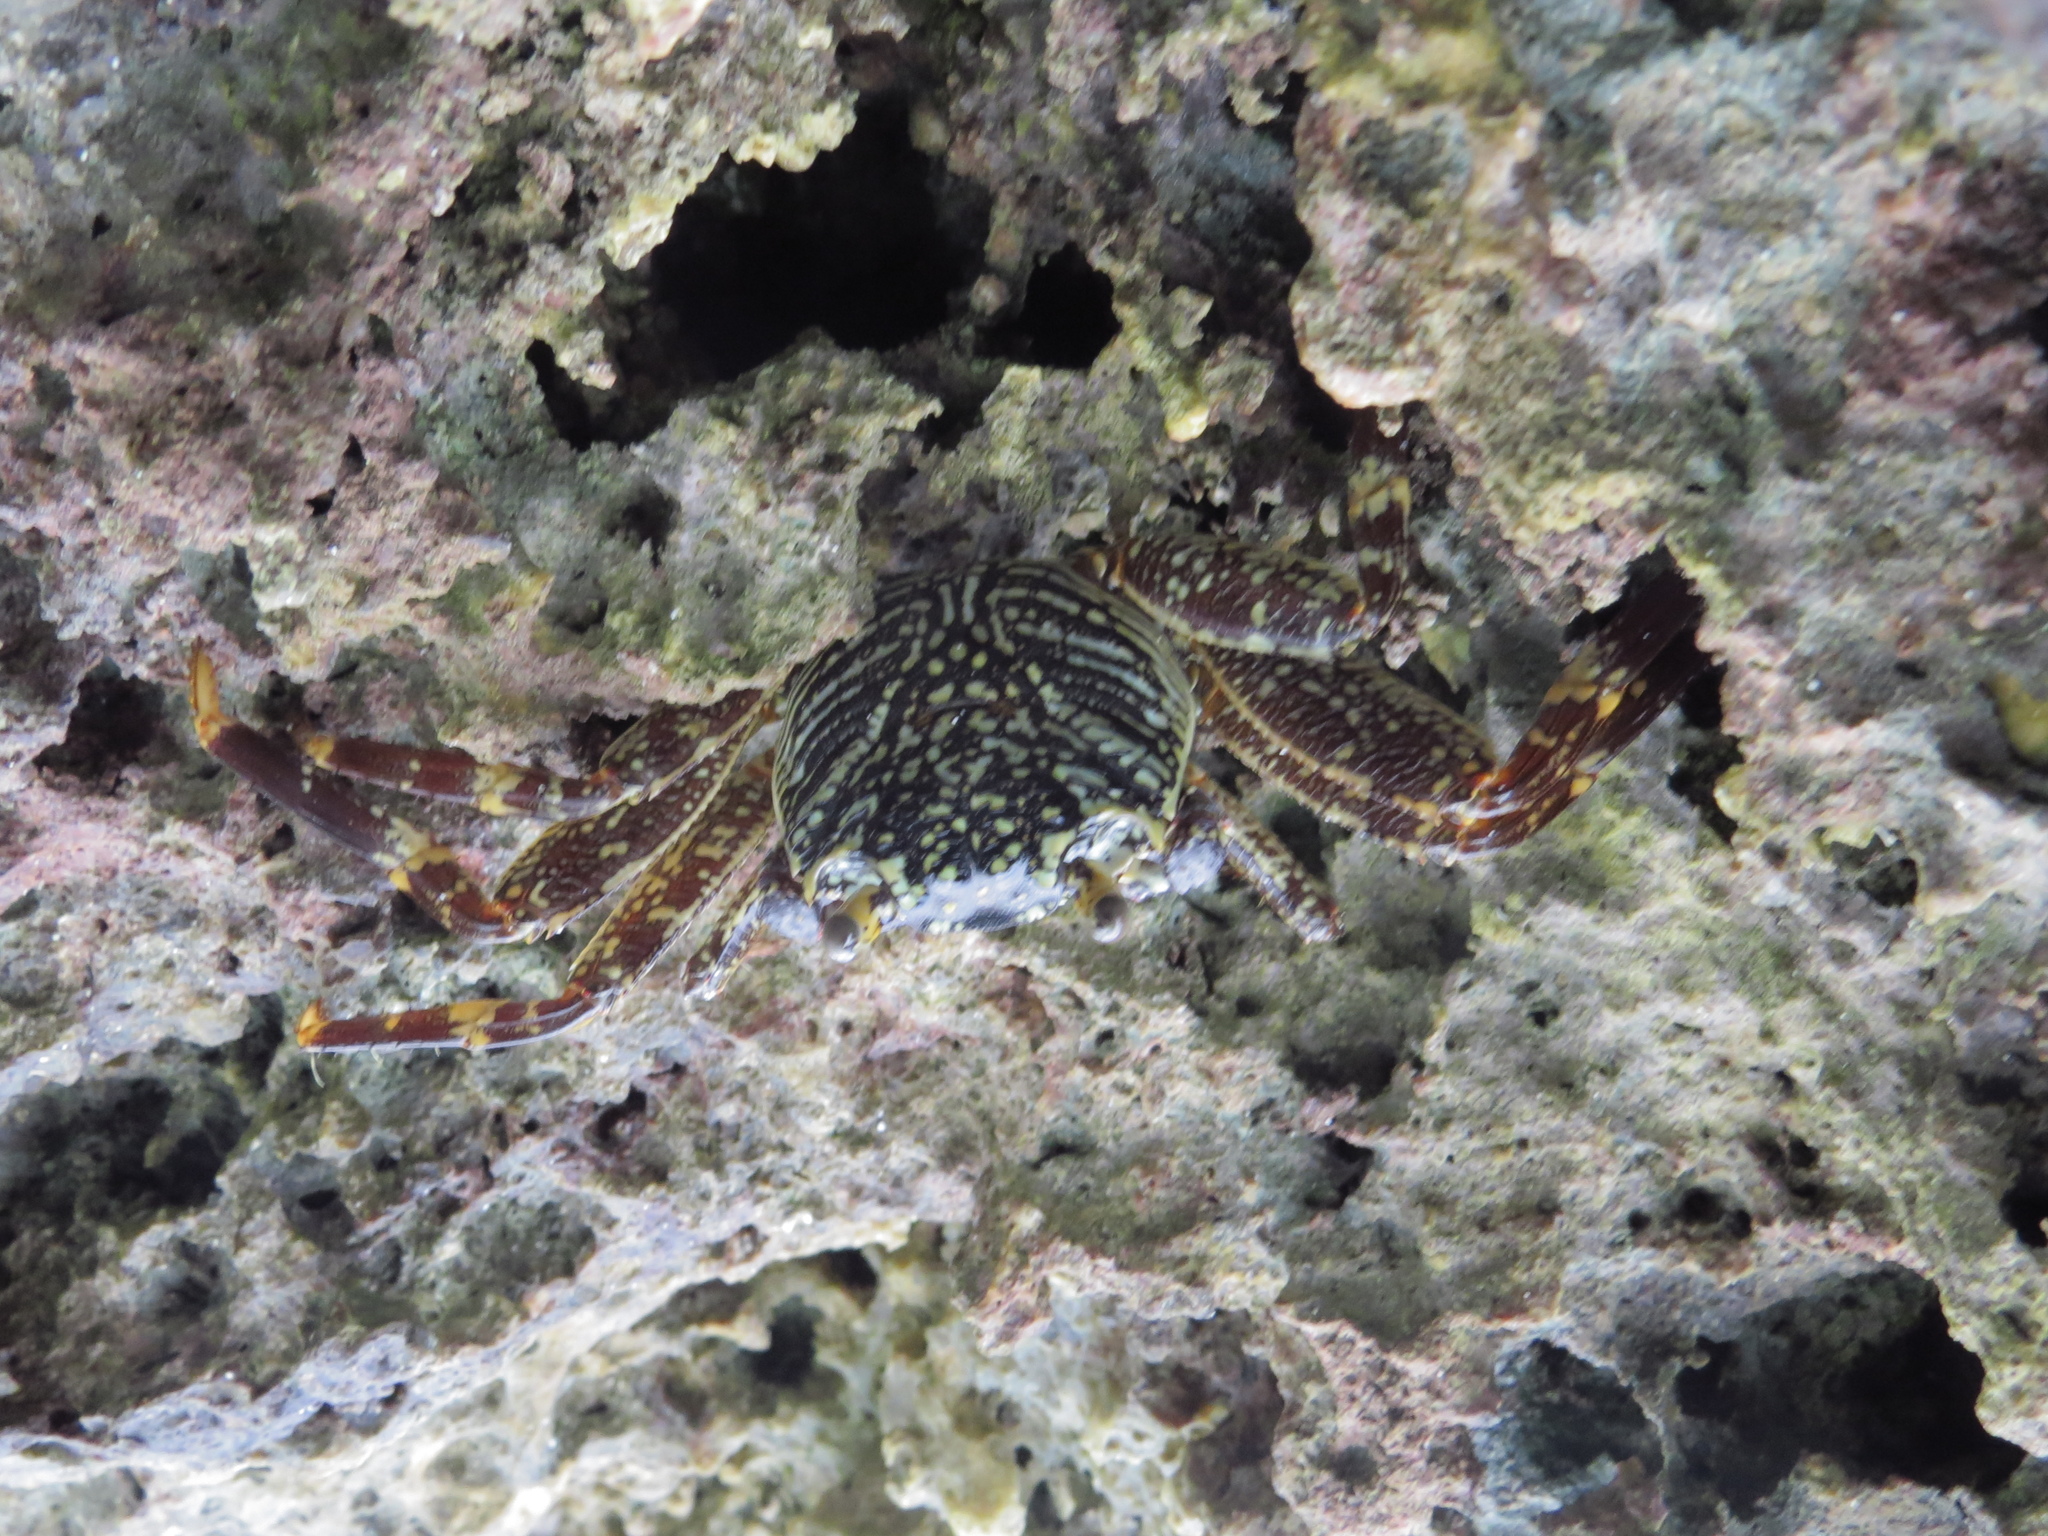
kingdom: Animalia
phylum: Arthropoda
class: Malacostraca
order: Decapoda
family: Grapsidae
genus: Grapsus
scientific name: Grapsus tenuicrustatus
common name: Natal lightfoot crab
